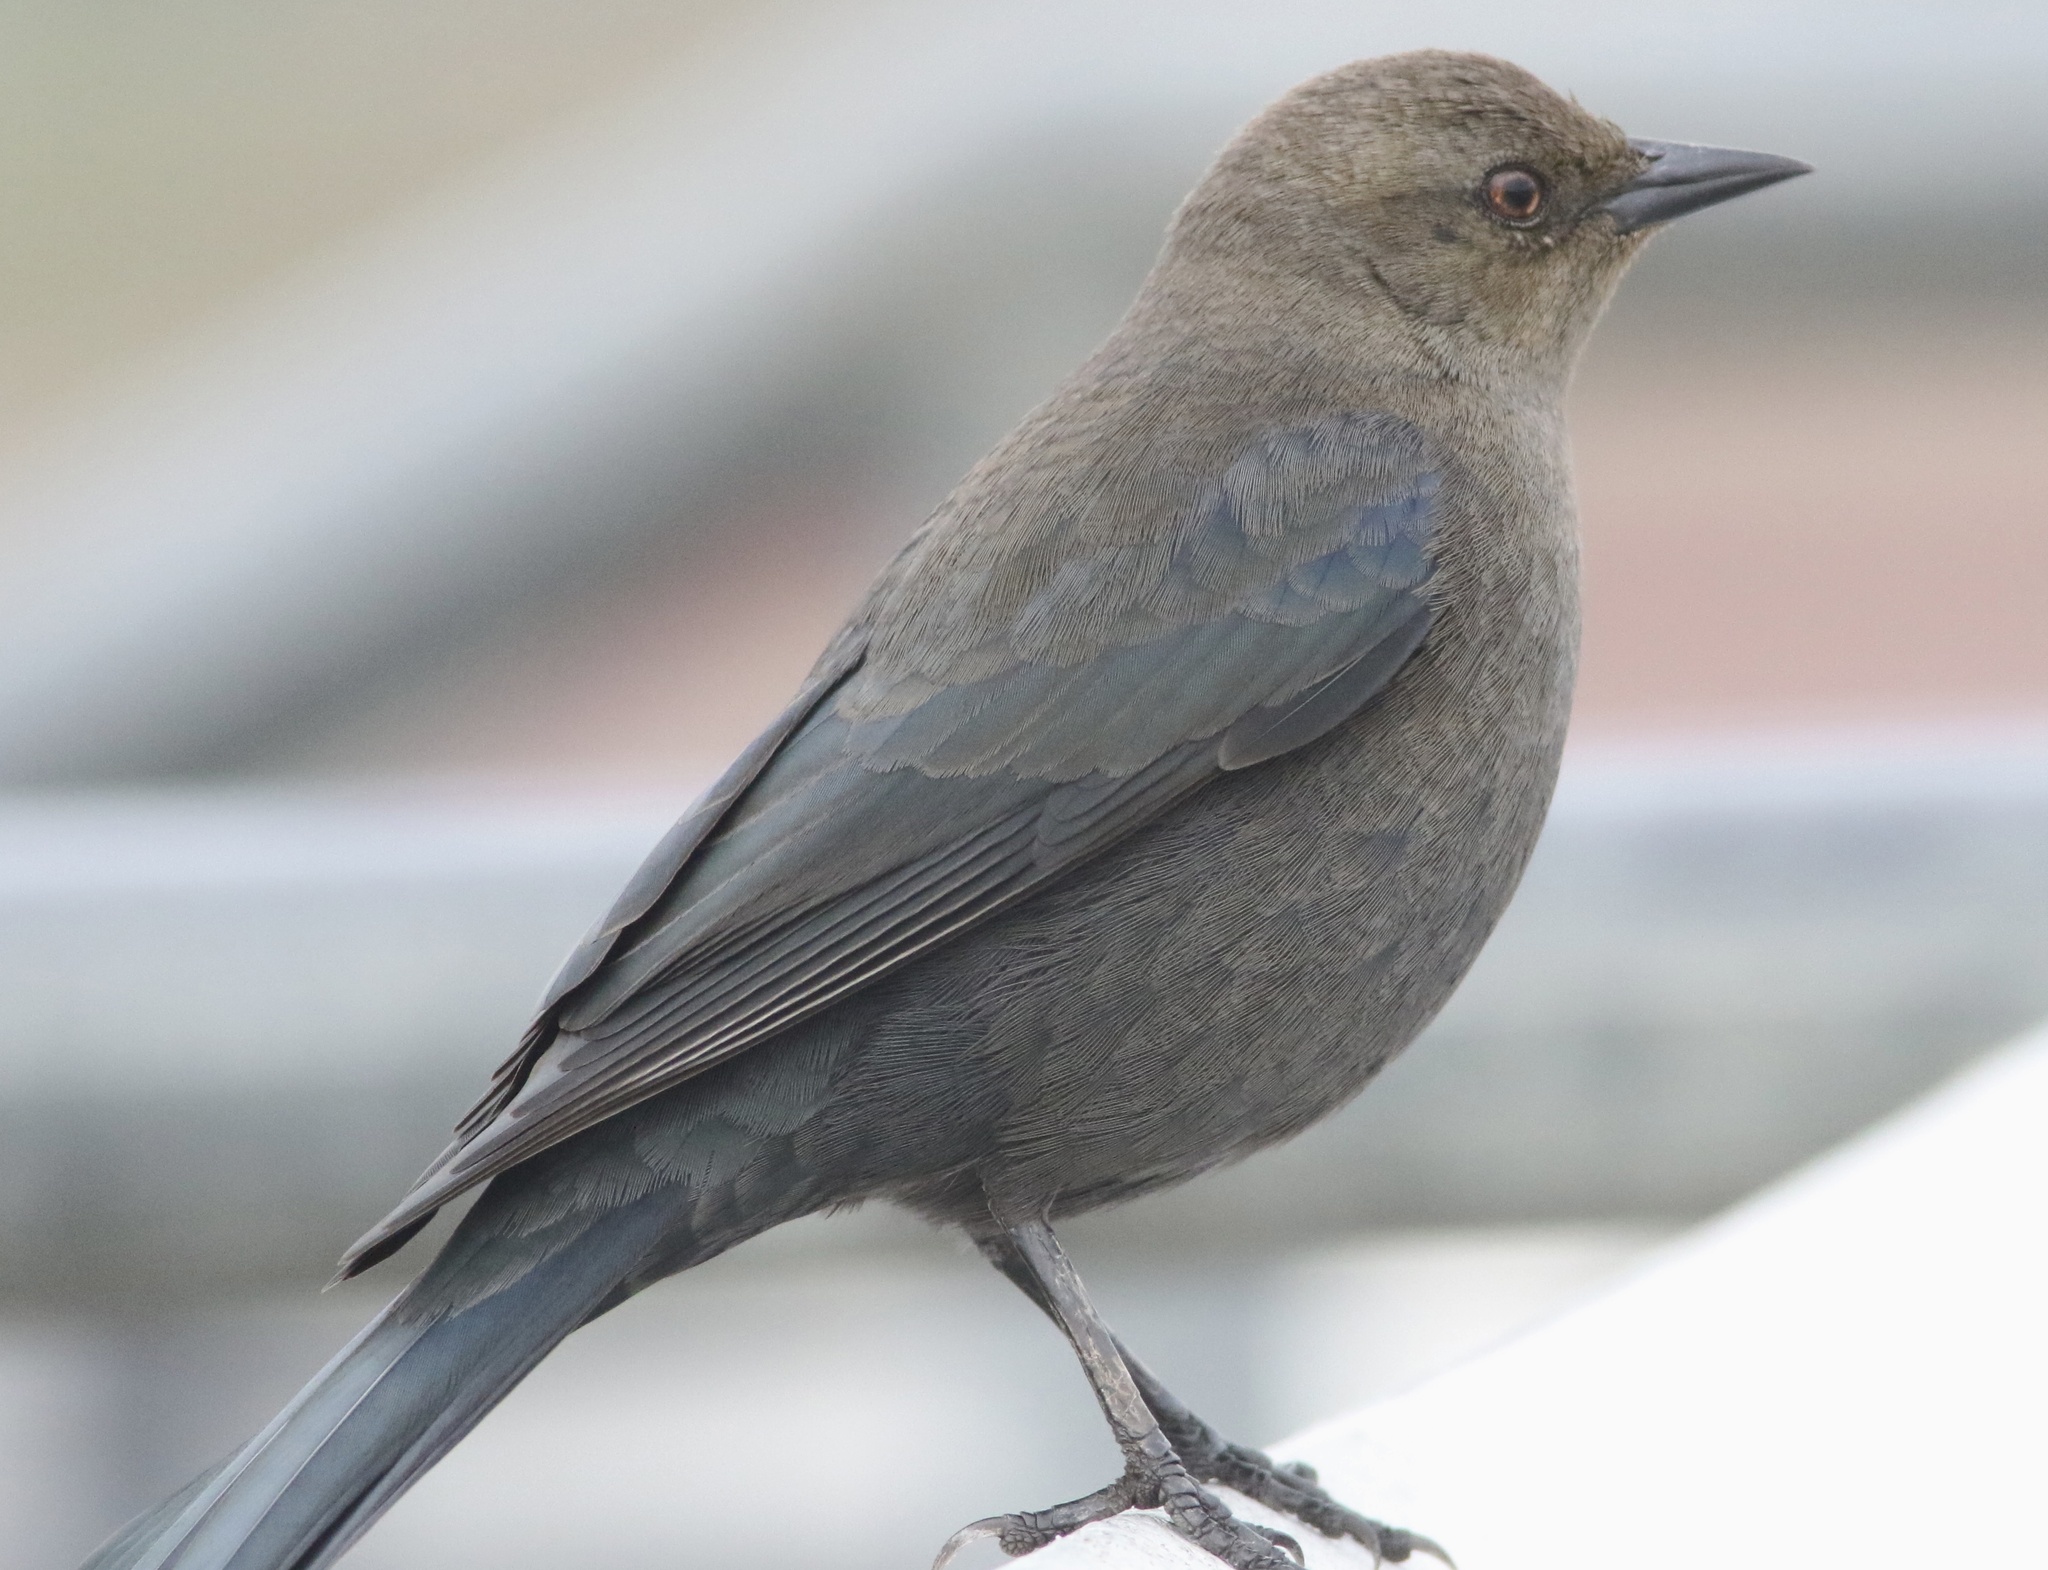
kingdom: Animalia
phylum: Chordata
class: Aves
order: Passeriformes
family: Icteridae
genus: Euphagus
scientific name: Euphagus cyanocephalus
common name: Brewer's blackbird
